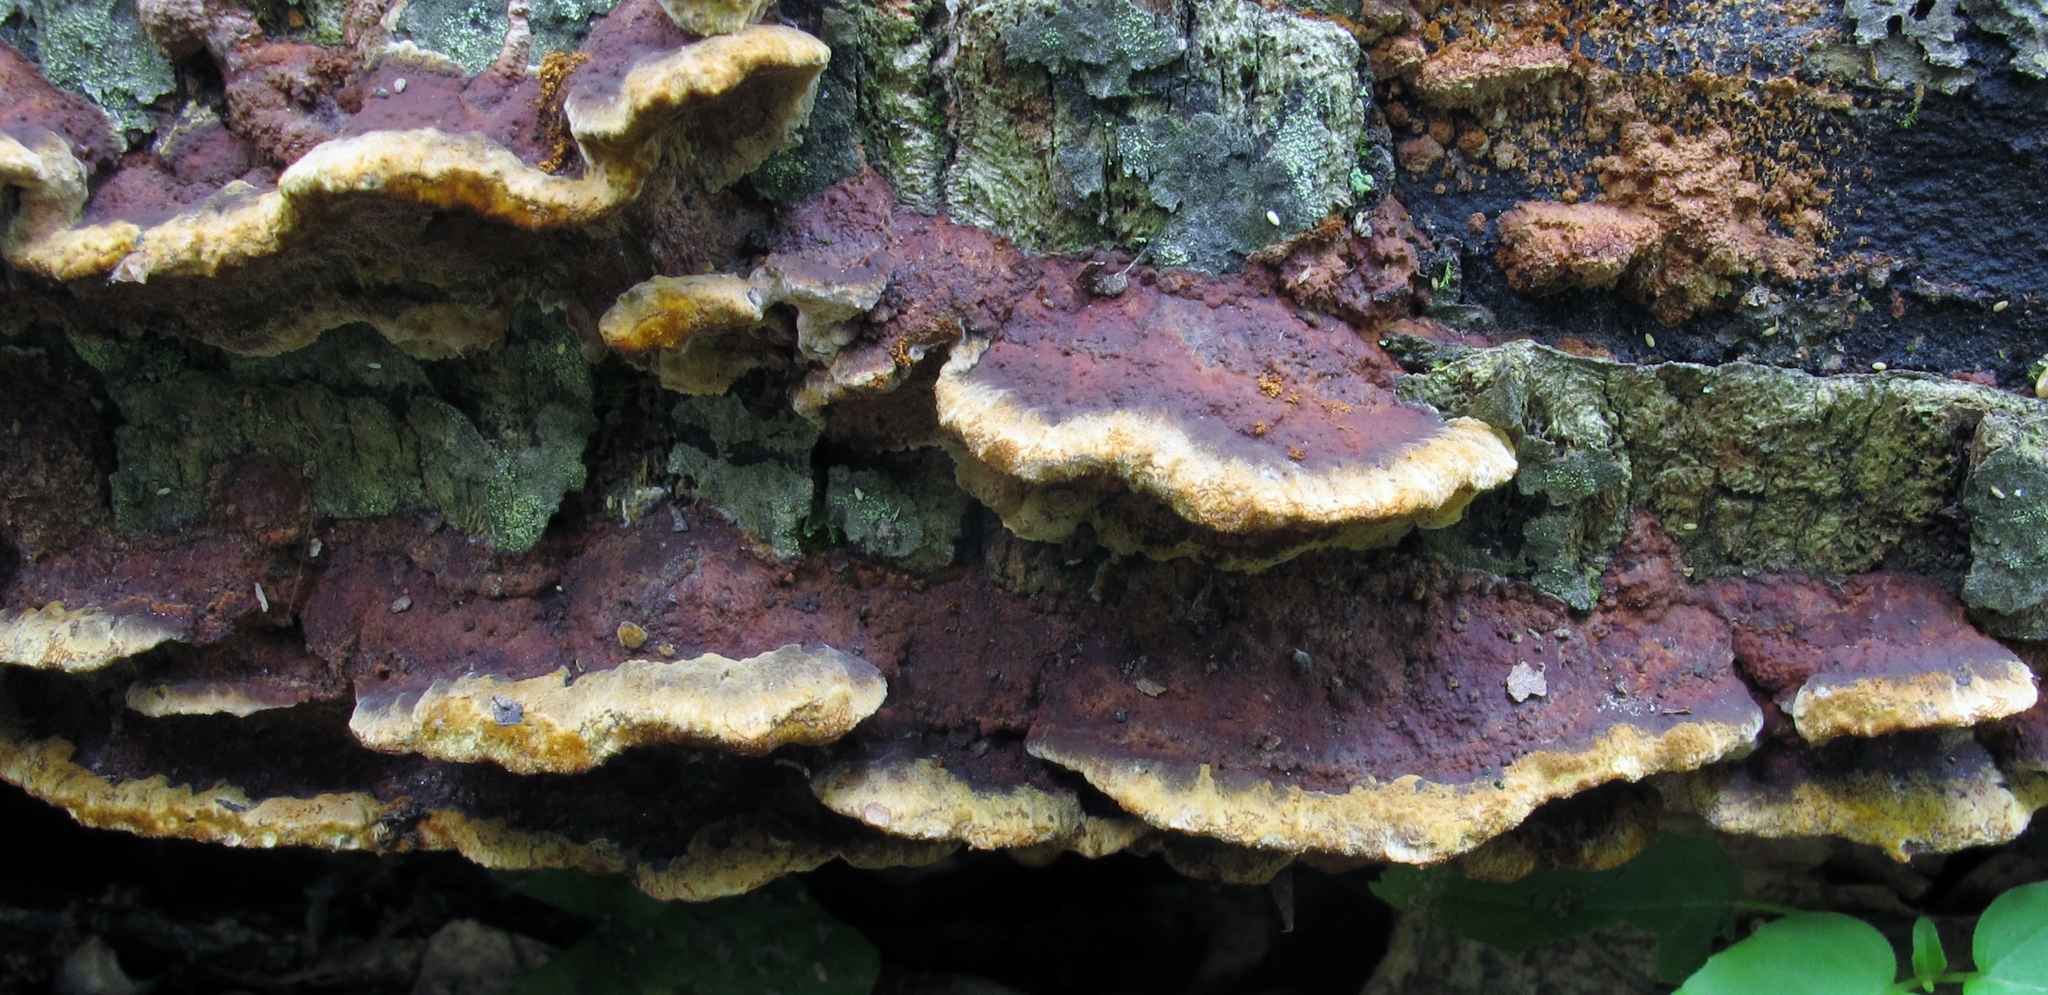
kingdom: Fungi
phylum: Basidiomycota
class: Agaricomycetes
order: Hymenochaetales
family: Hymenochaetaceae
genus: Phellinus
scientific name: Phellinus gilvus
